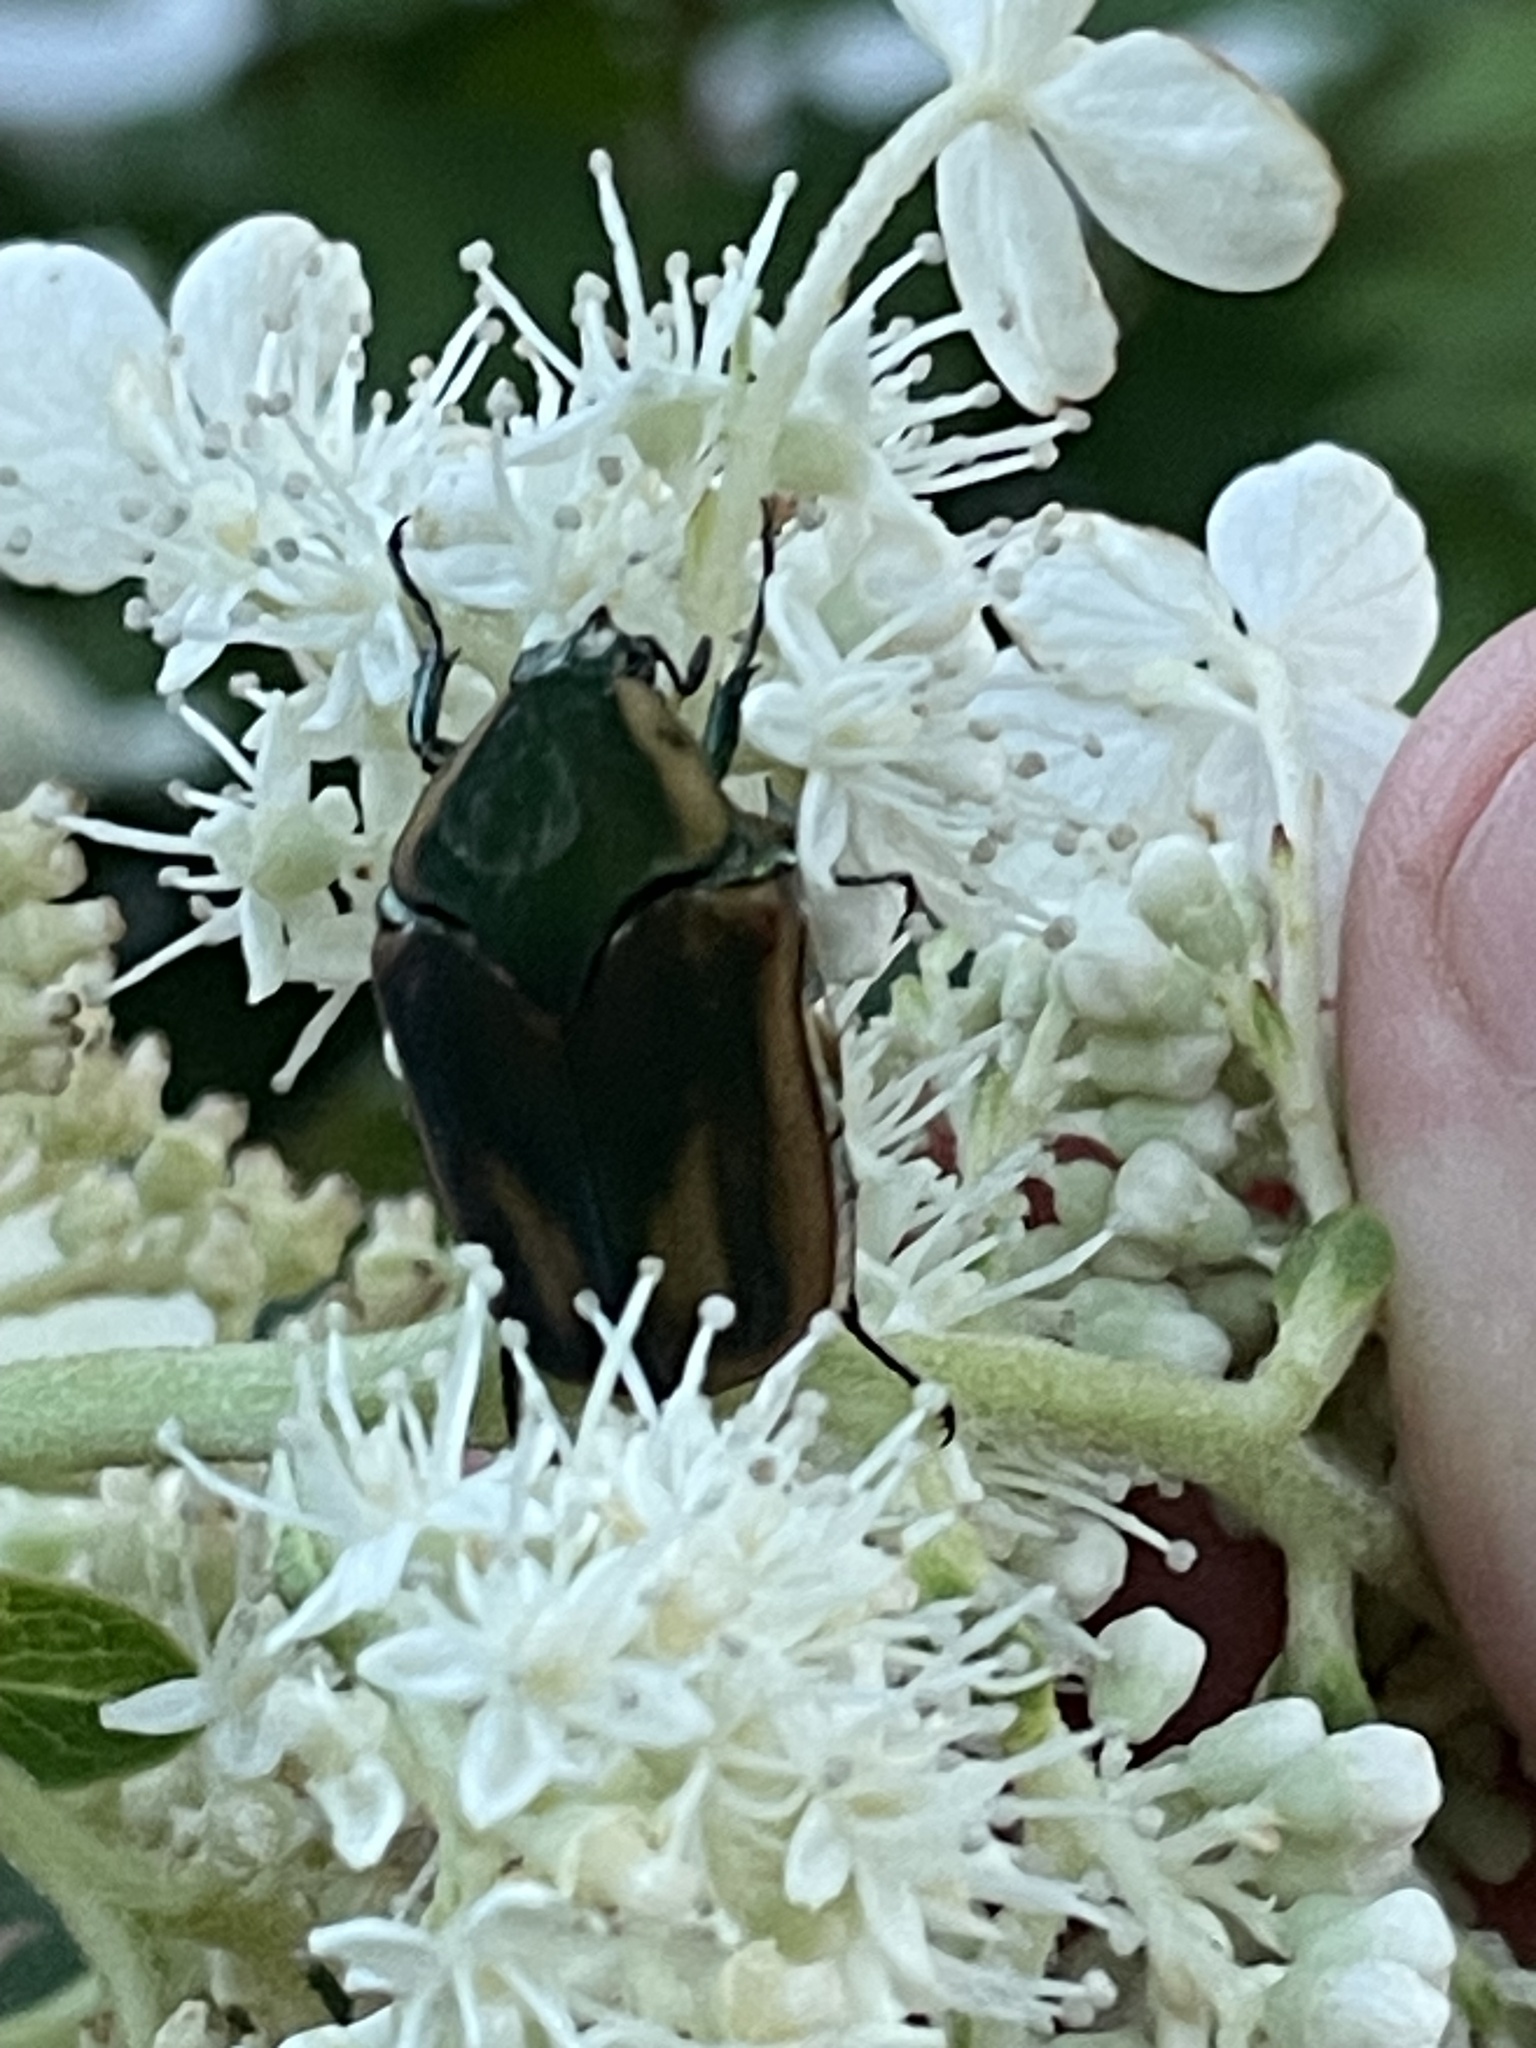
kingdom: Animalia
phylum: Arthropoda
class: Insecta
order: Coleoptera
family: Scarabaeidae
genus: Cotinis
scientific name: Cotinis nitida
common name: Common green june beetle
